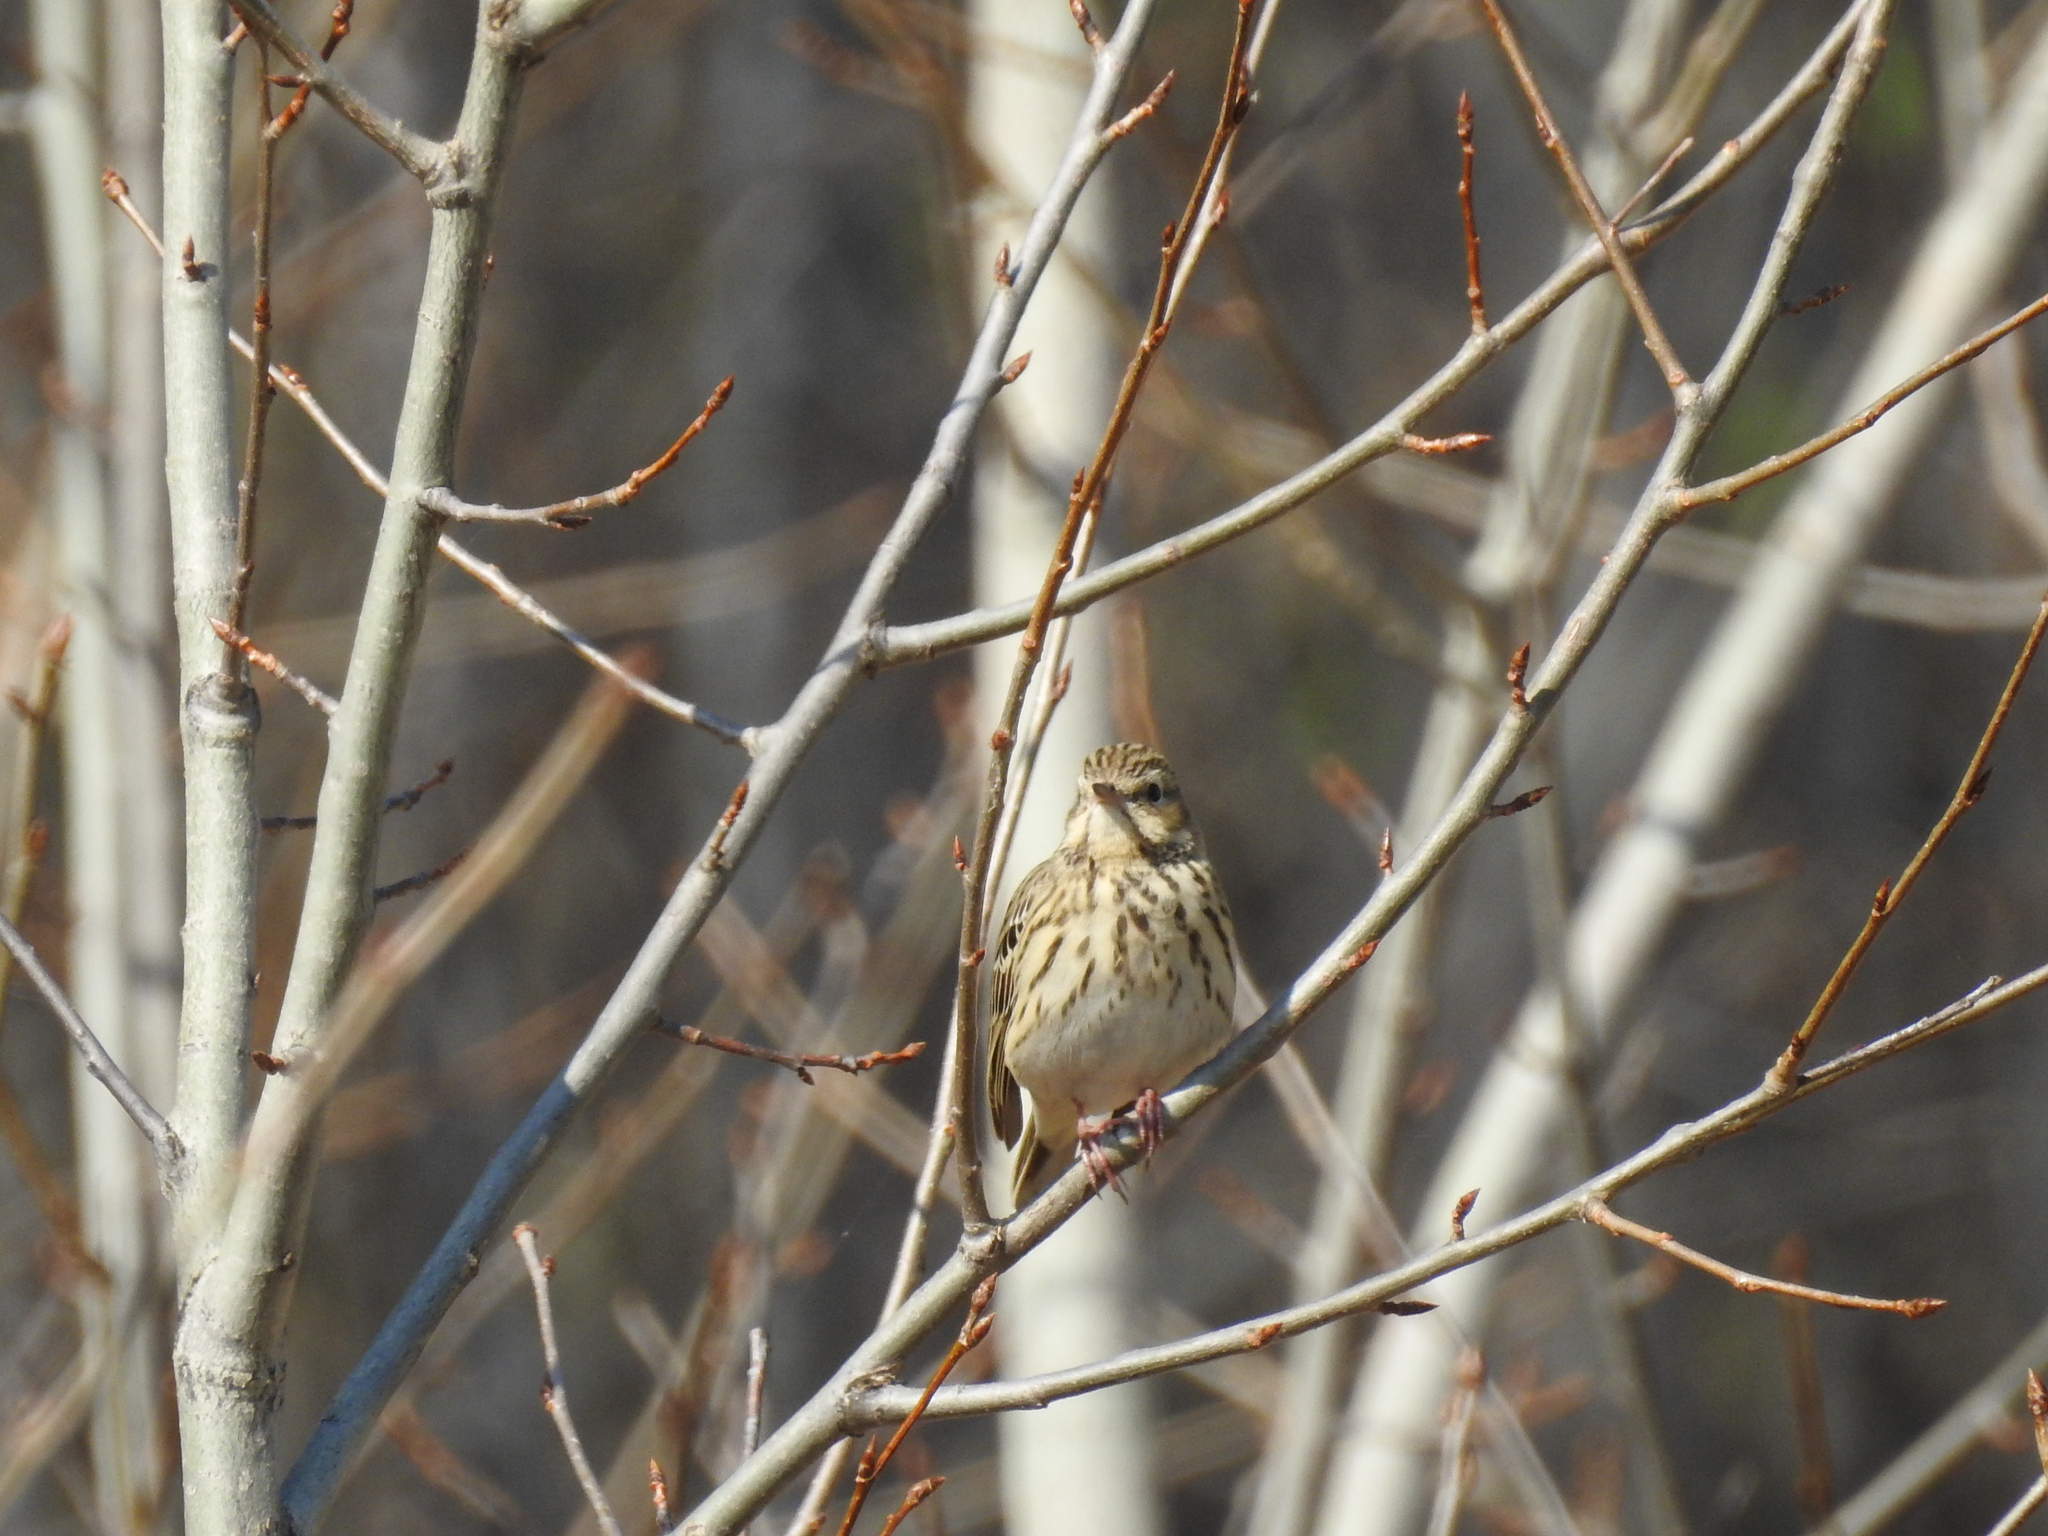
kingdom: Animalia
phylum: Chordata
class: Aves
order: Passeriformes
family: Motacillidae
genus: Anthus
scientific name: Anthus trivialis
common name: Tree pipit
